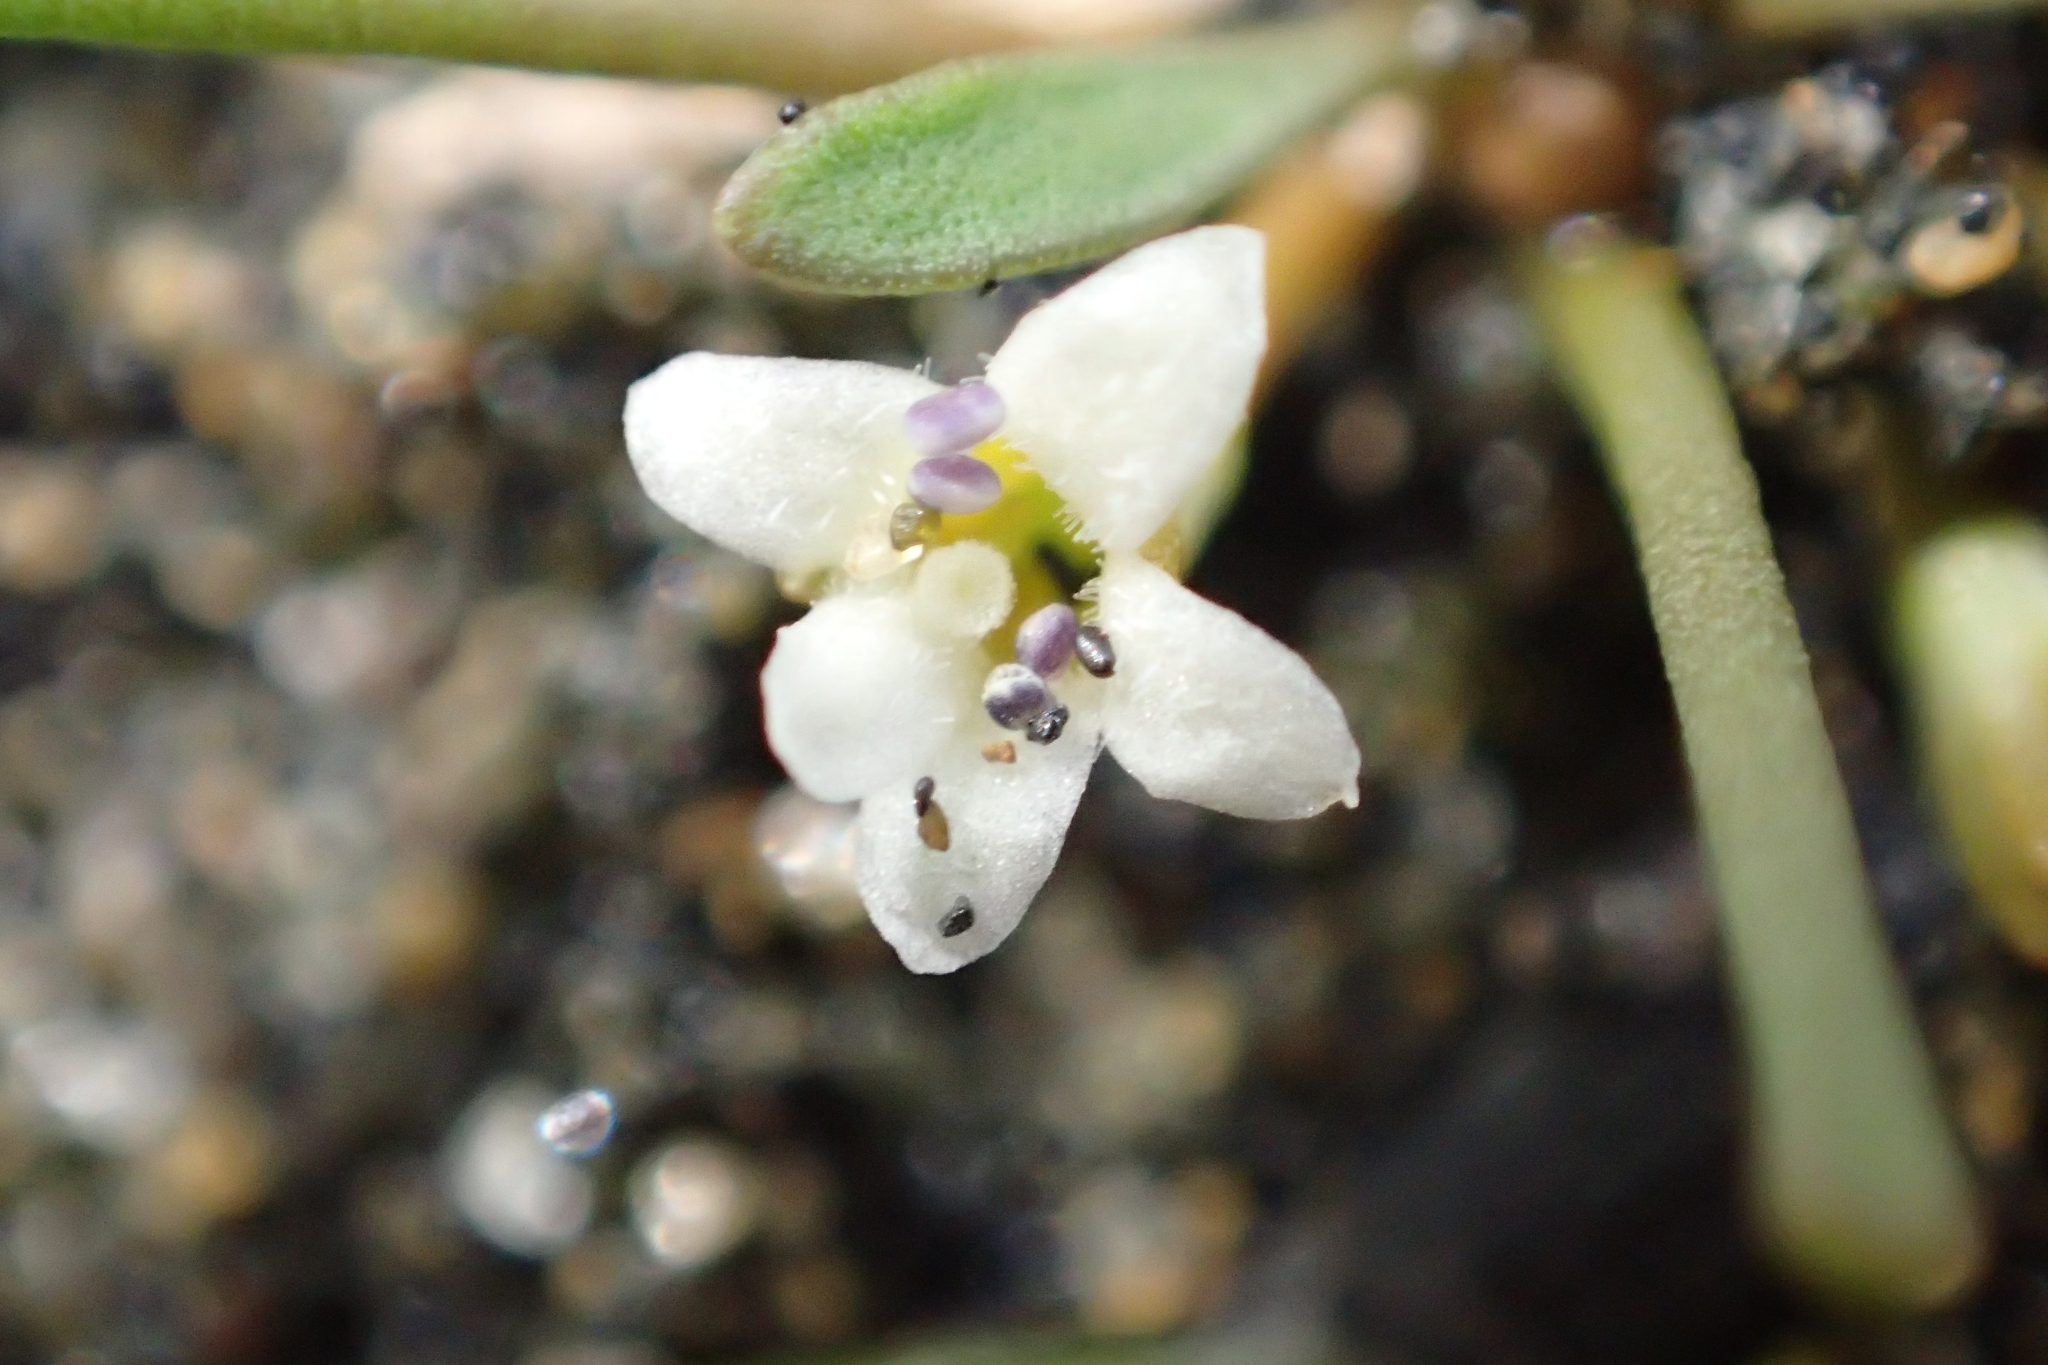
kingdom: Plantae
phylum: Tracheophyta
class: Magnoliopsida
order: Lamiales
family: Scrophulariaceae
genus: Limosella
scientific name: Limosella australis
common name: Welsh mudwort
